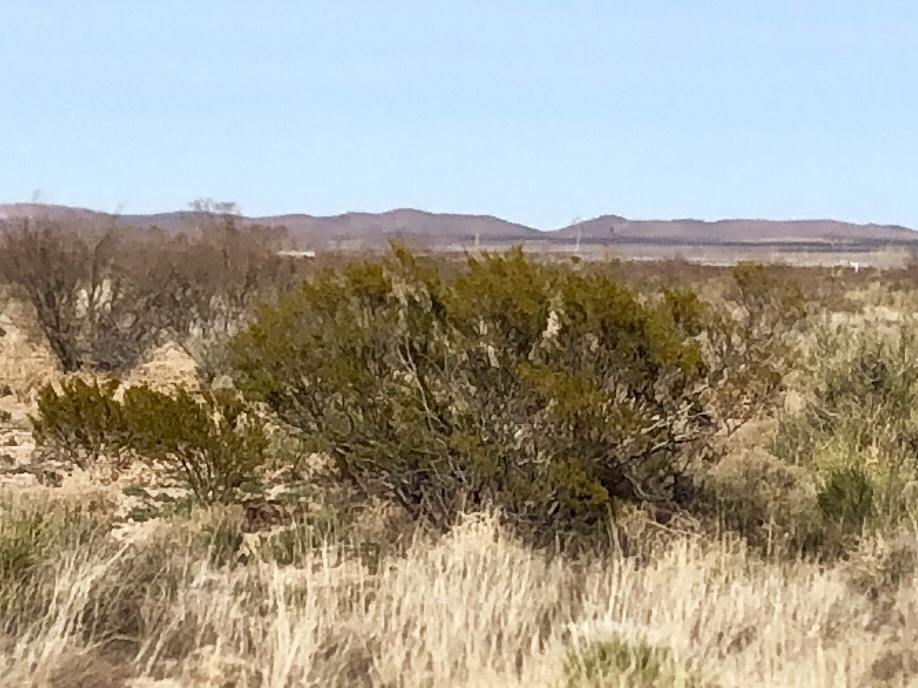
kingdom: Plantae
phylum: Tracheophyta
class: Magnoliopsida
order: Zygophyllales
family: Zygophyllaceae
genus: Larrea
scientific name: Larrea tridentata
